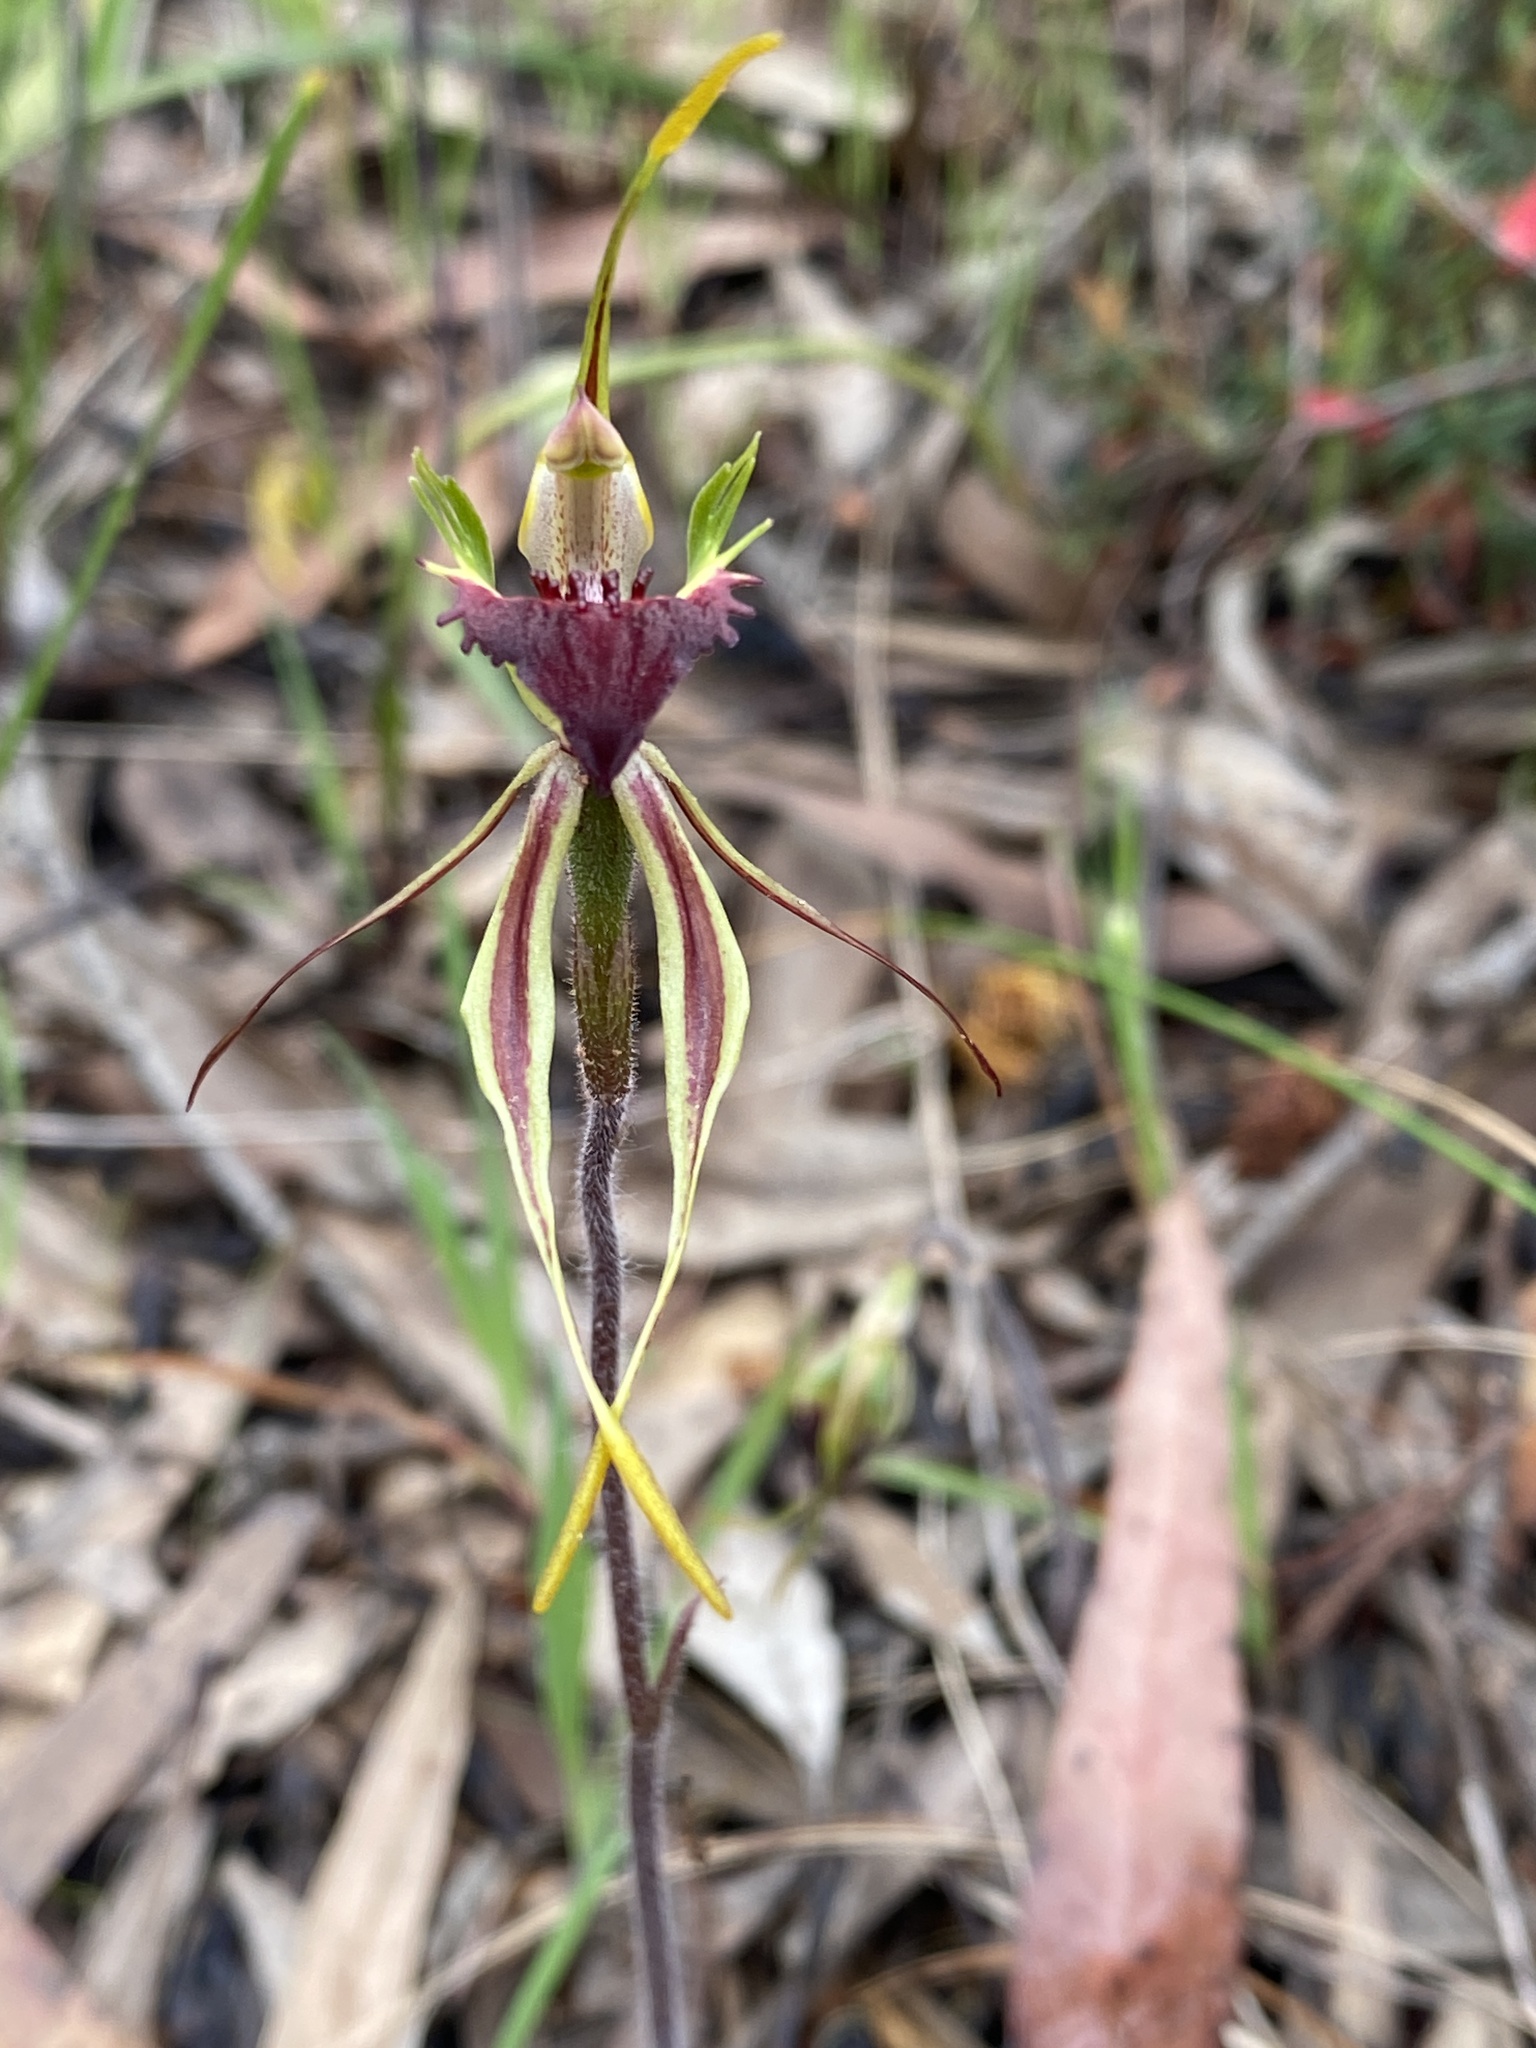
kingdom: Plantae
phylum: Tracheophyta
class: Liliopsida
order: Asparagales
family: Orchidaceae
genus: Caladenia
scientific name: Caladenia septuosa
